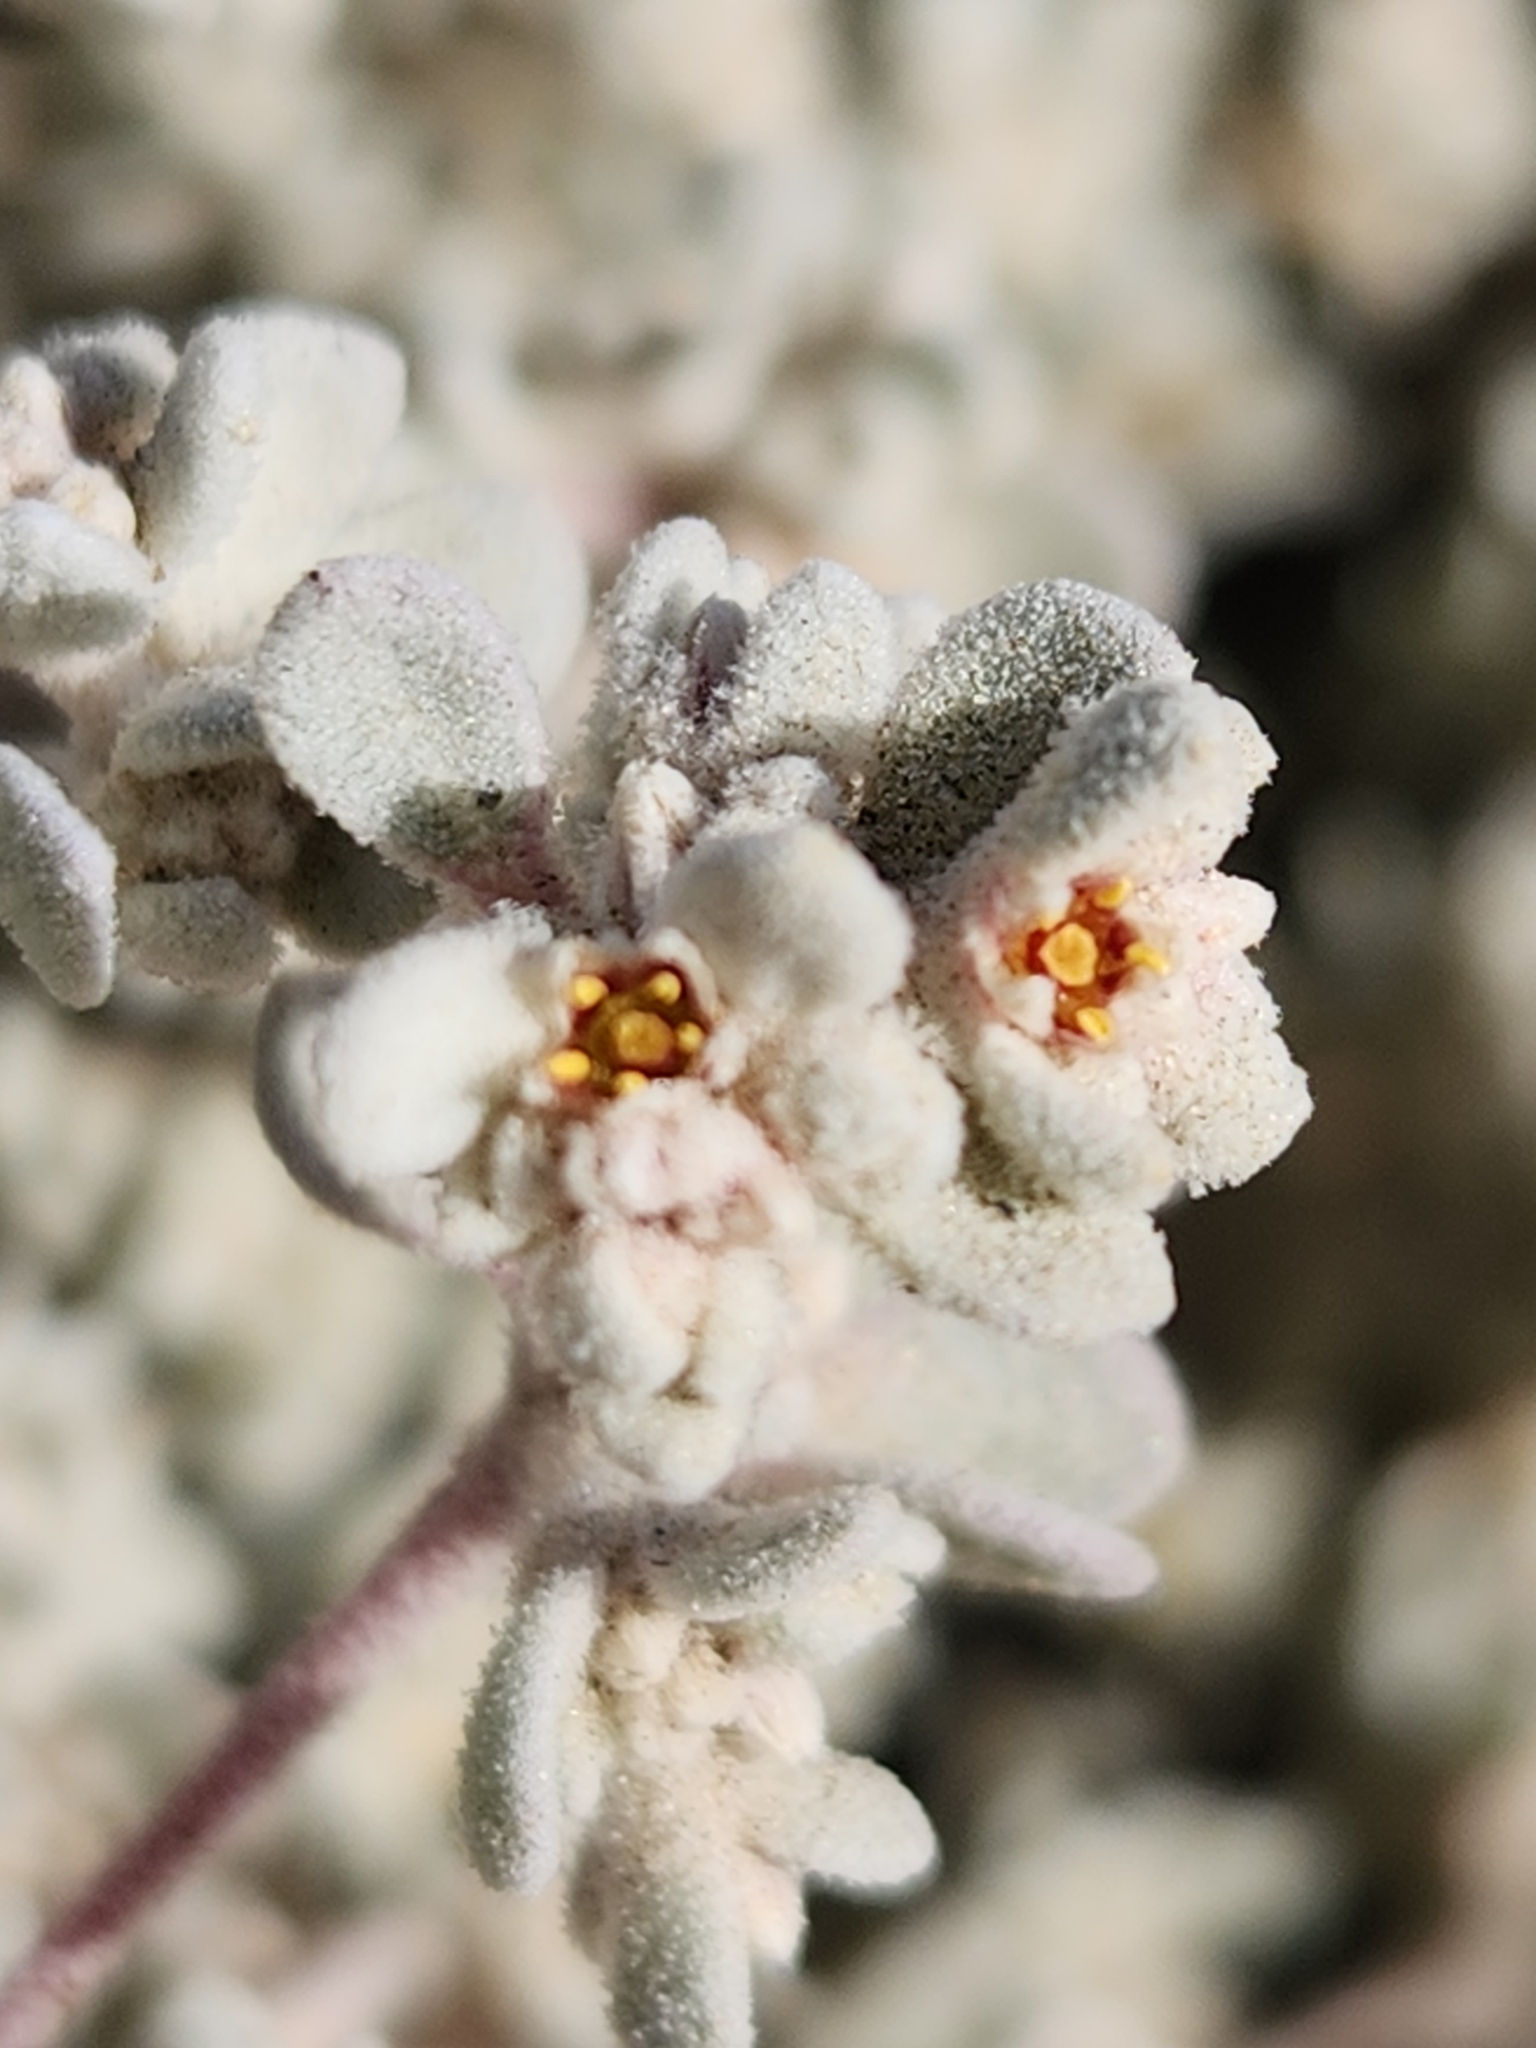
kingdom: Plantae
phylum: Tracheophyta
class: Magnoliopsida
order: Caryophyllales
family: Amaranthaceae
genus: Tidestromia
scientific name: Tidestromia suffruticosa
